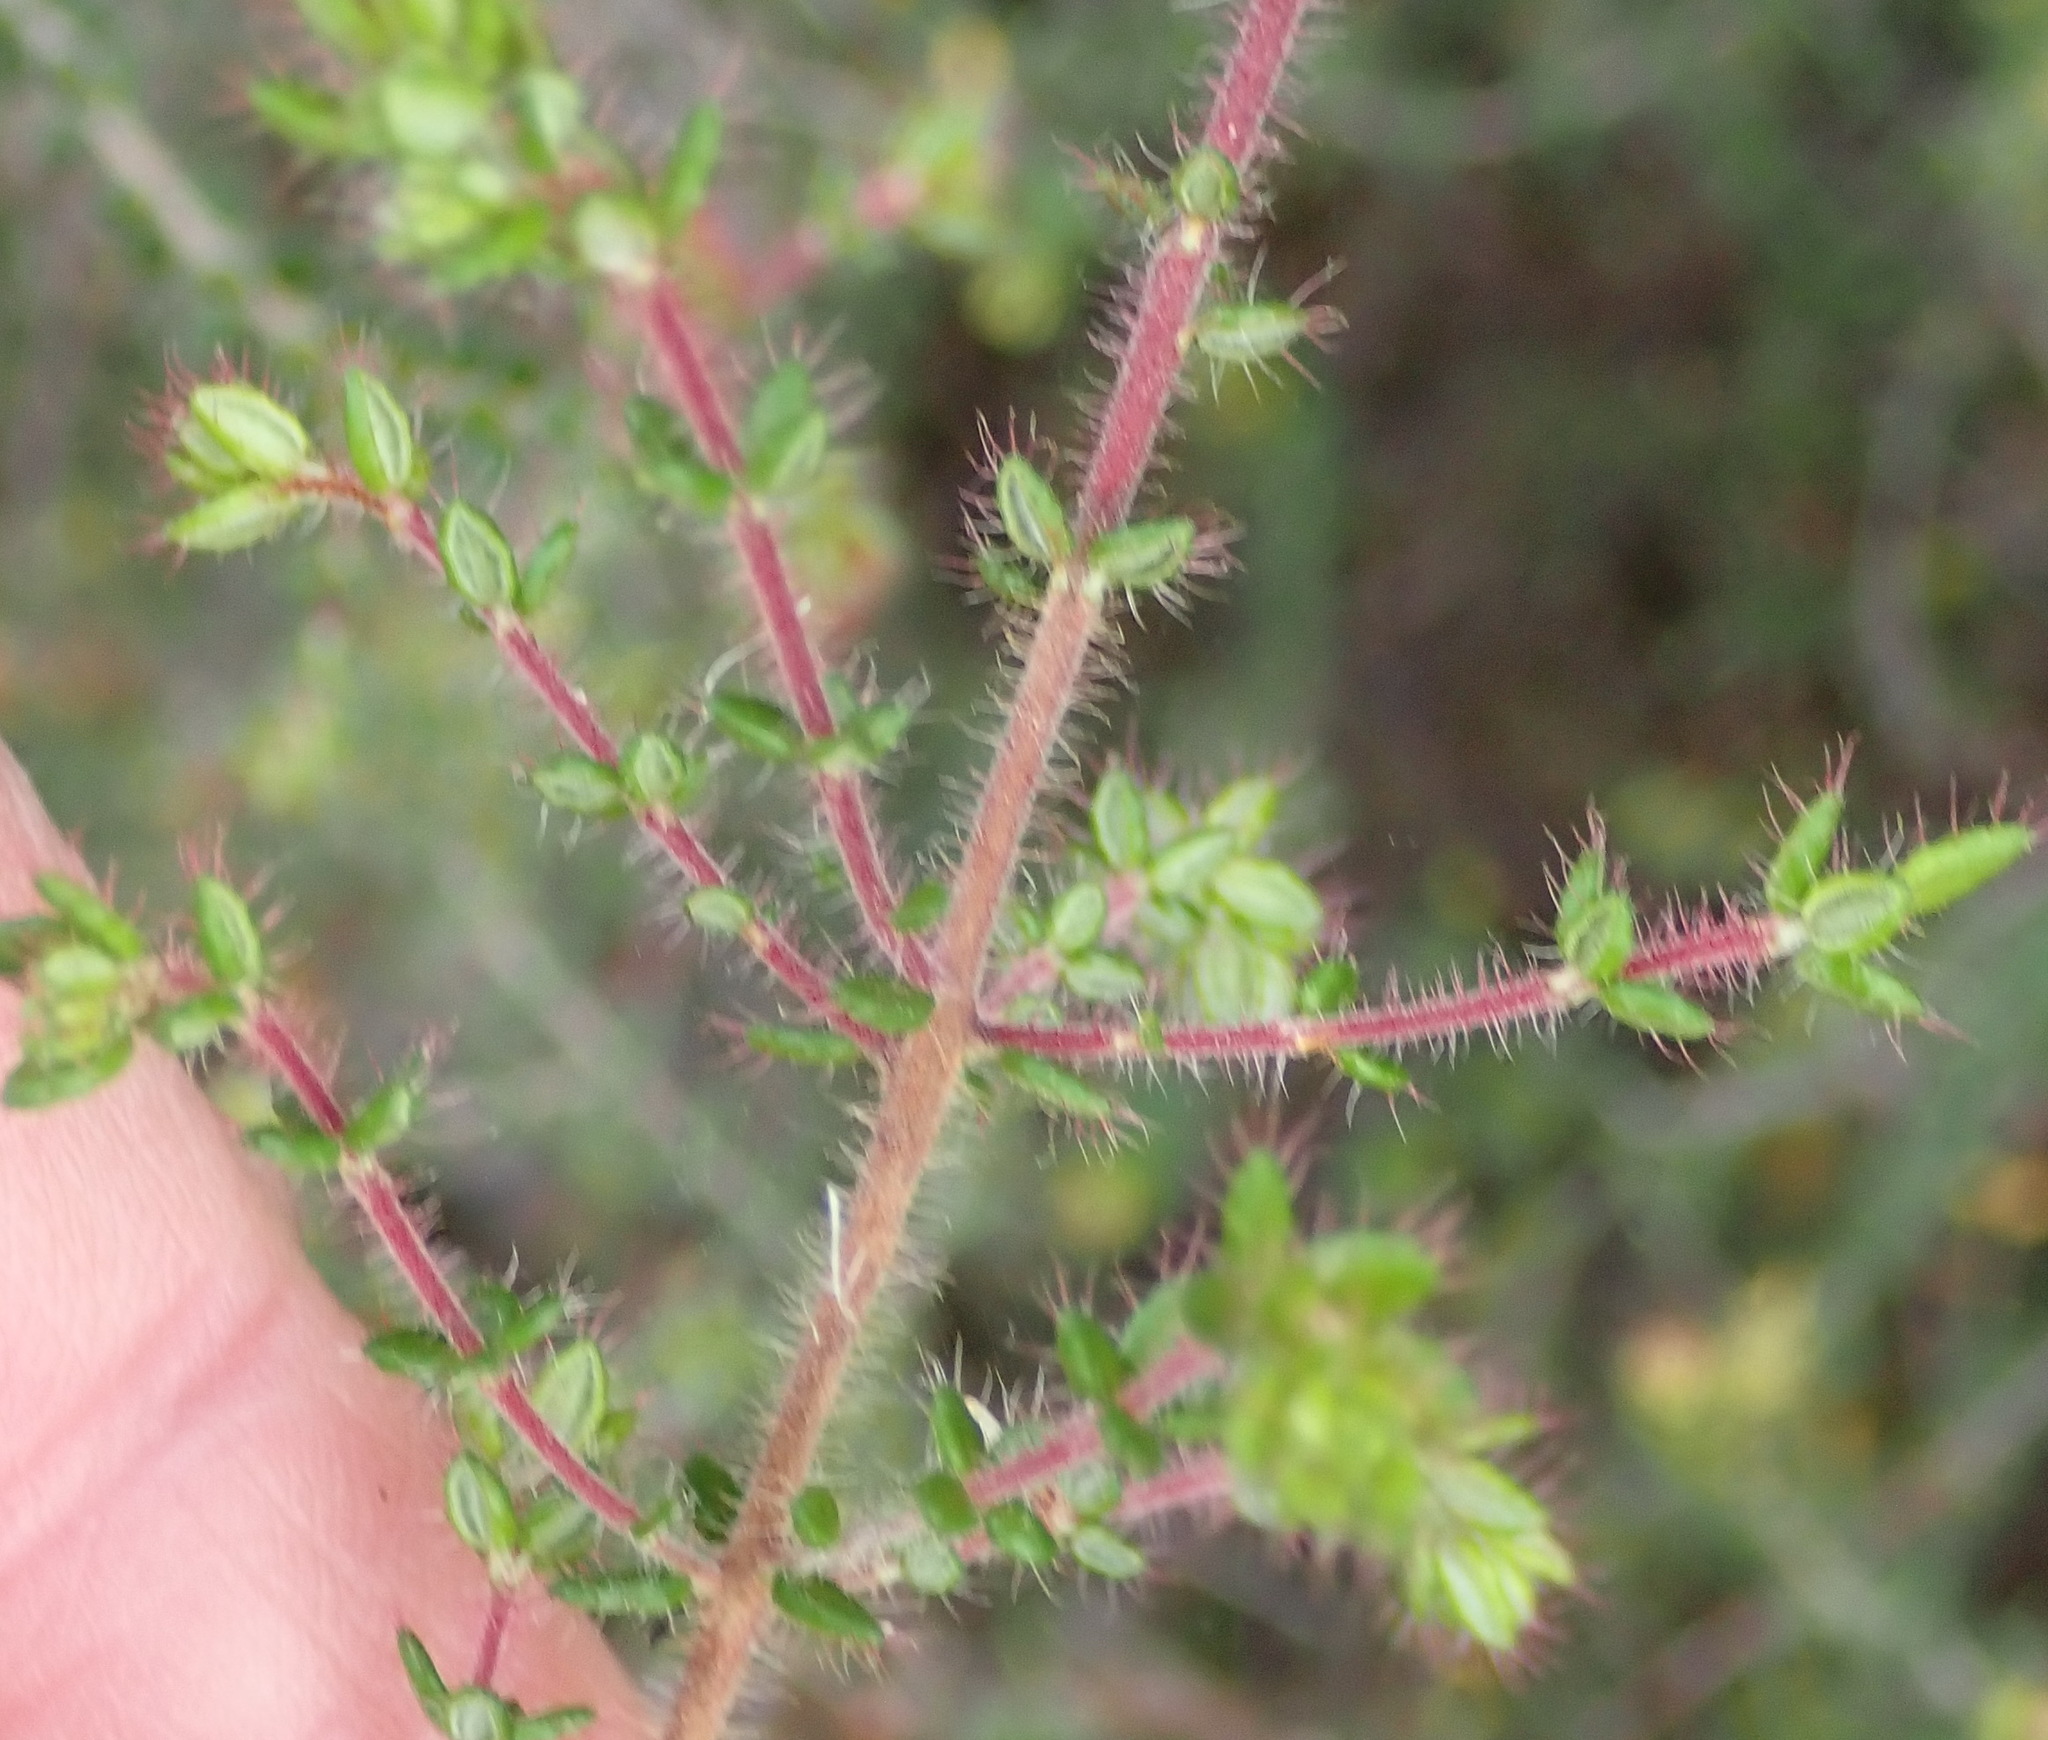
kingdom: Plantae
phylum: Tracheophyta
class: Magnoliopsida
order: Ericales
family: Ericaceae
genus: Erica
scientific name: Erica aneimena
